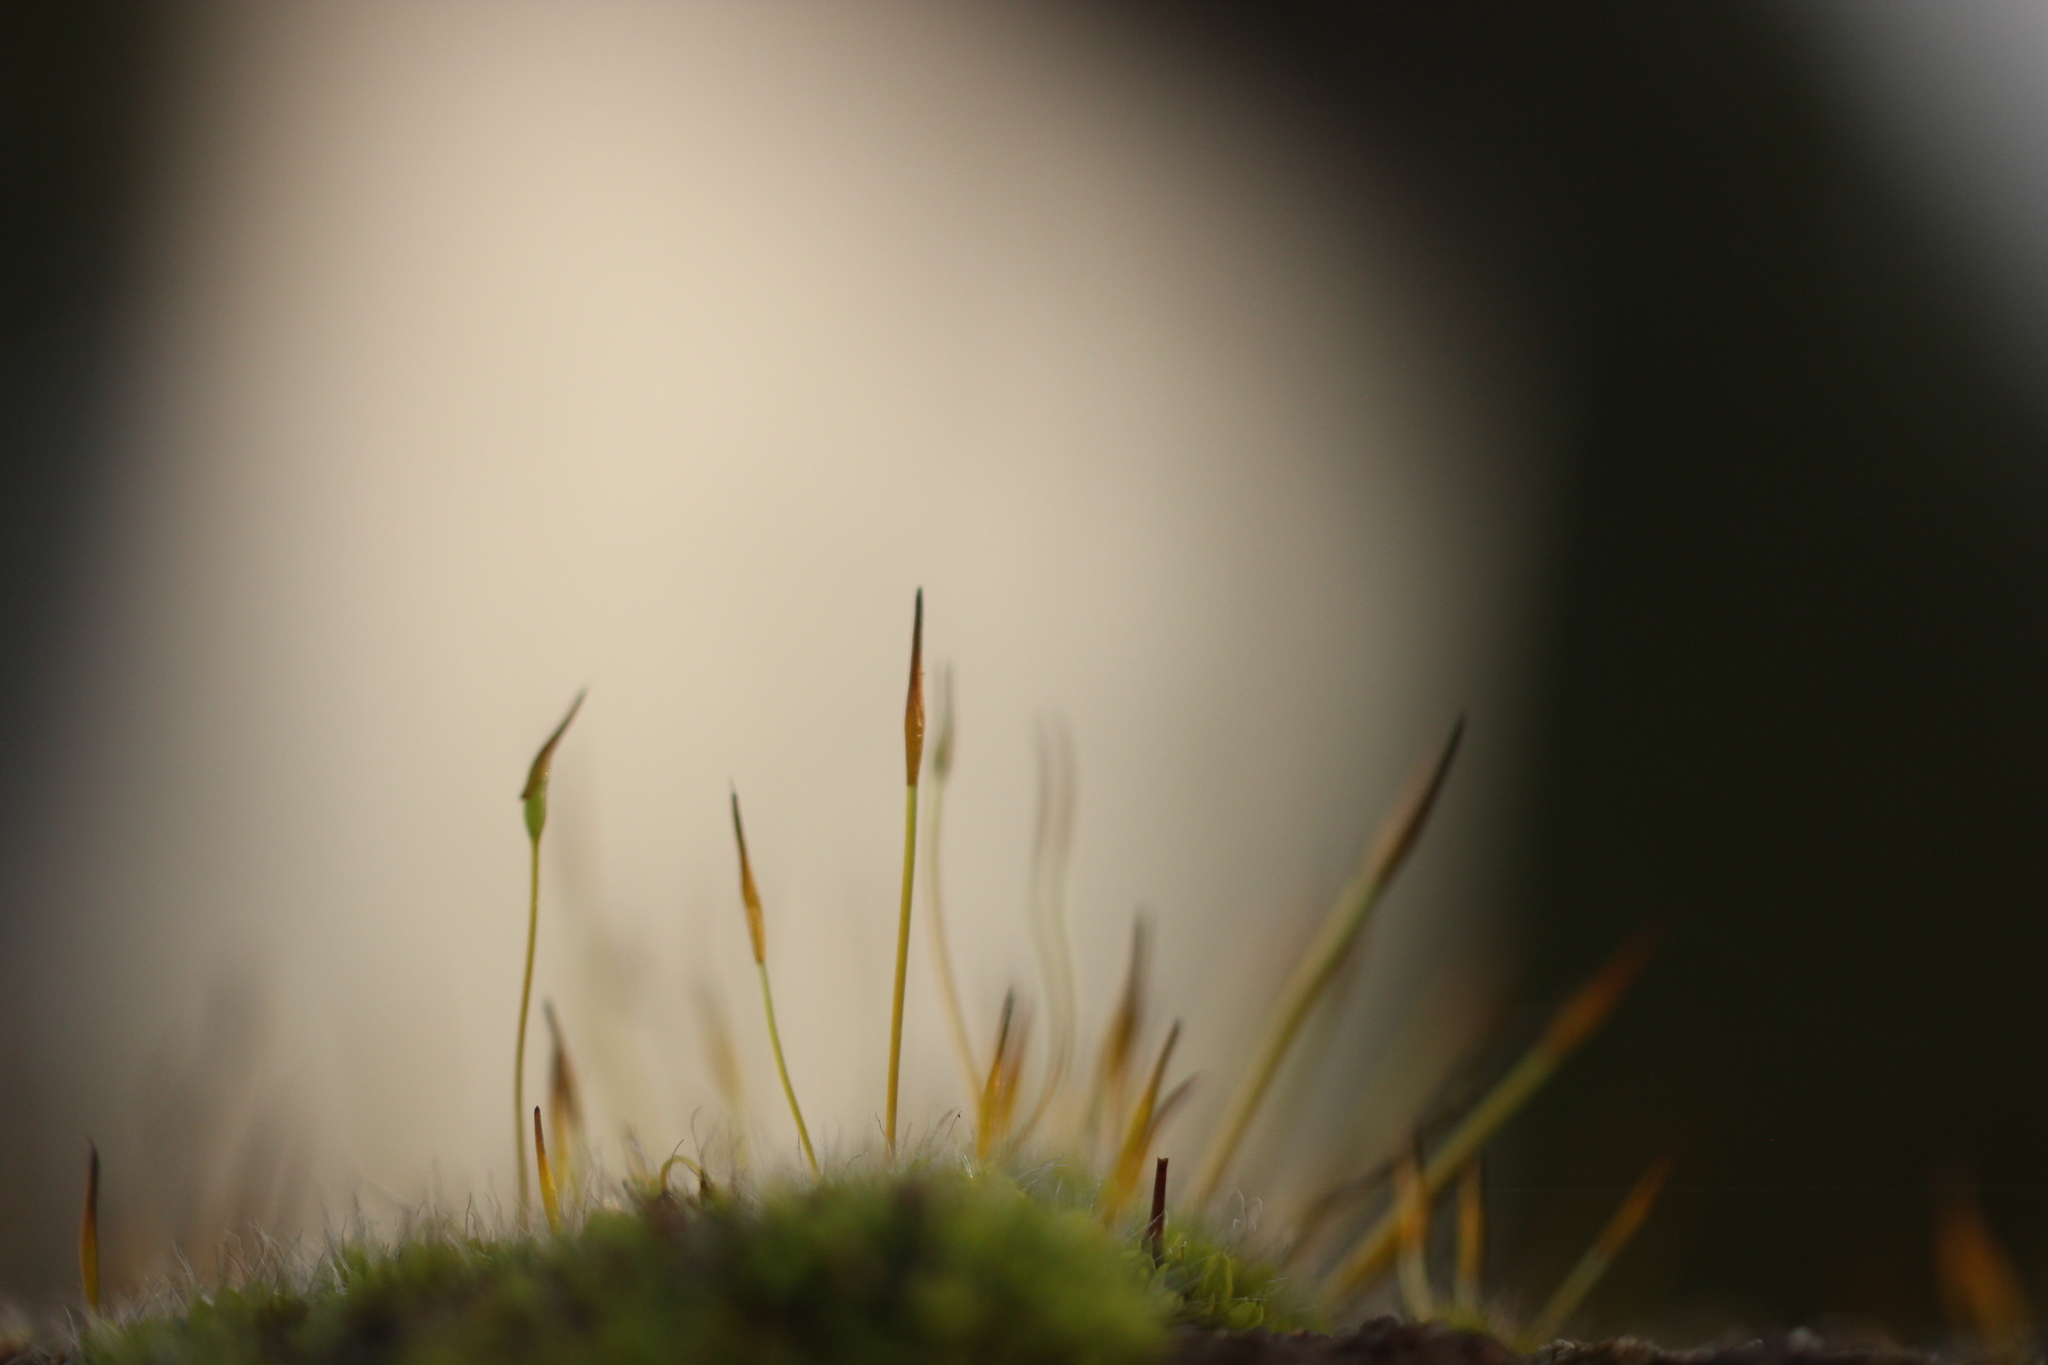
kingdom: Plantae
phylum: Bryophyta
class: Bryopsida
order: Pottiales
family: Pottiaceae
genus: Tortula
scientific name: Tortula muralis
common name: Wall screw-moss
